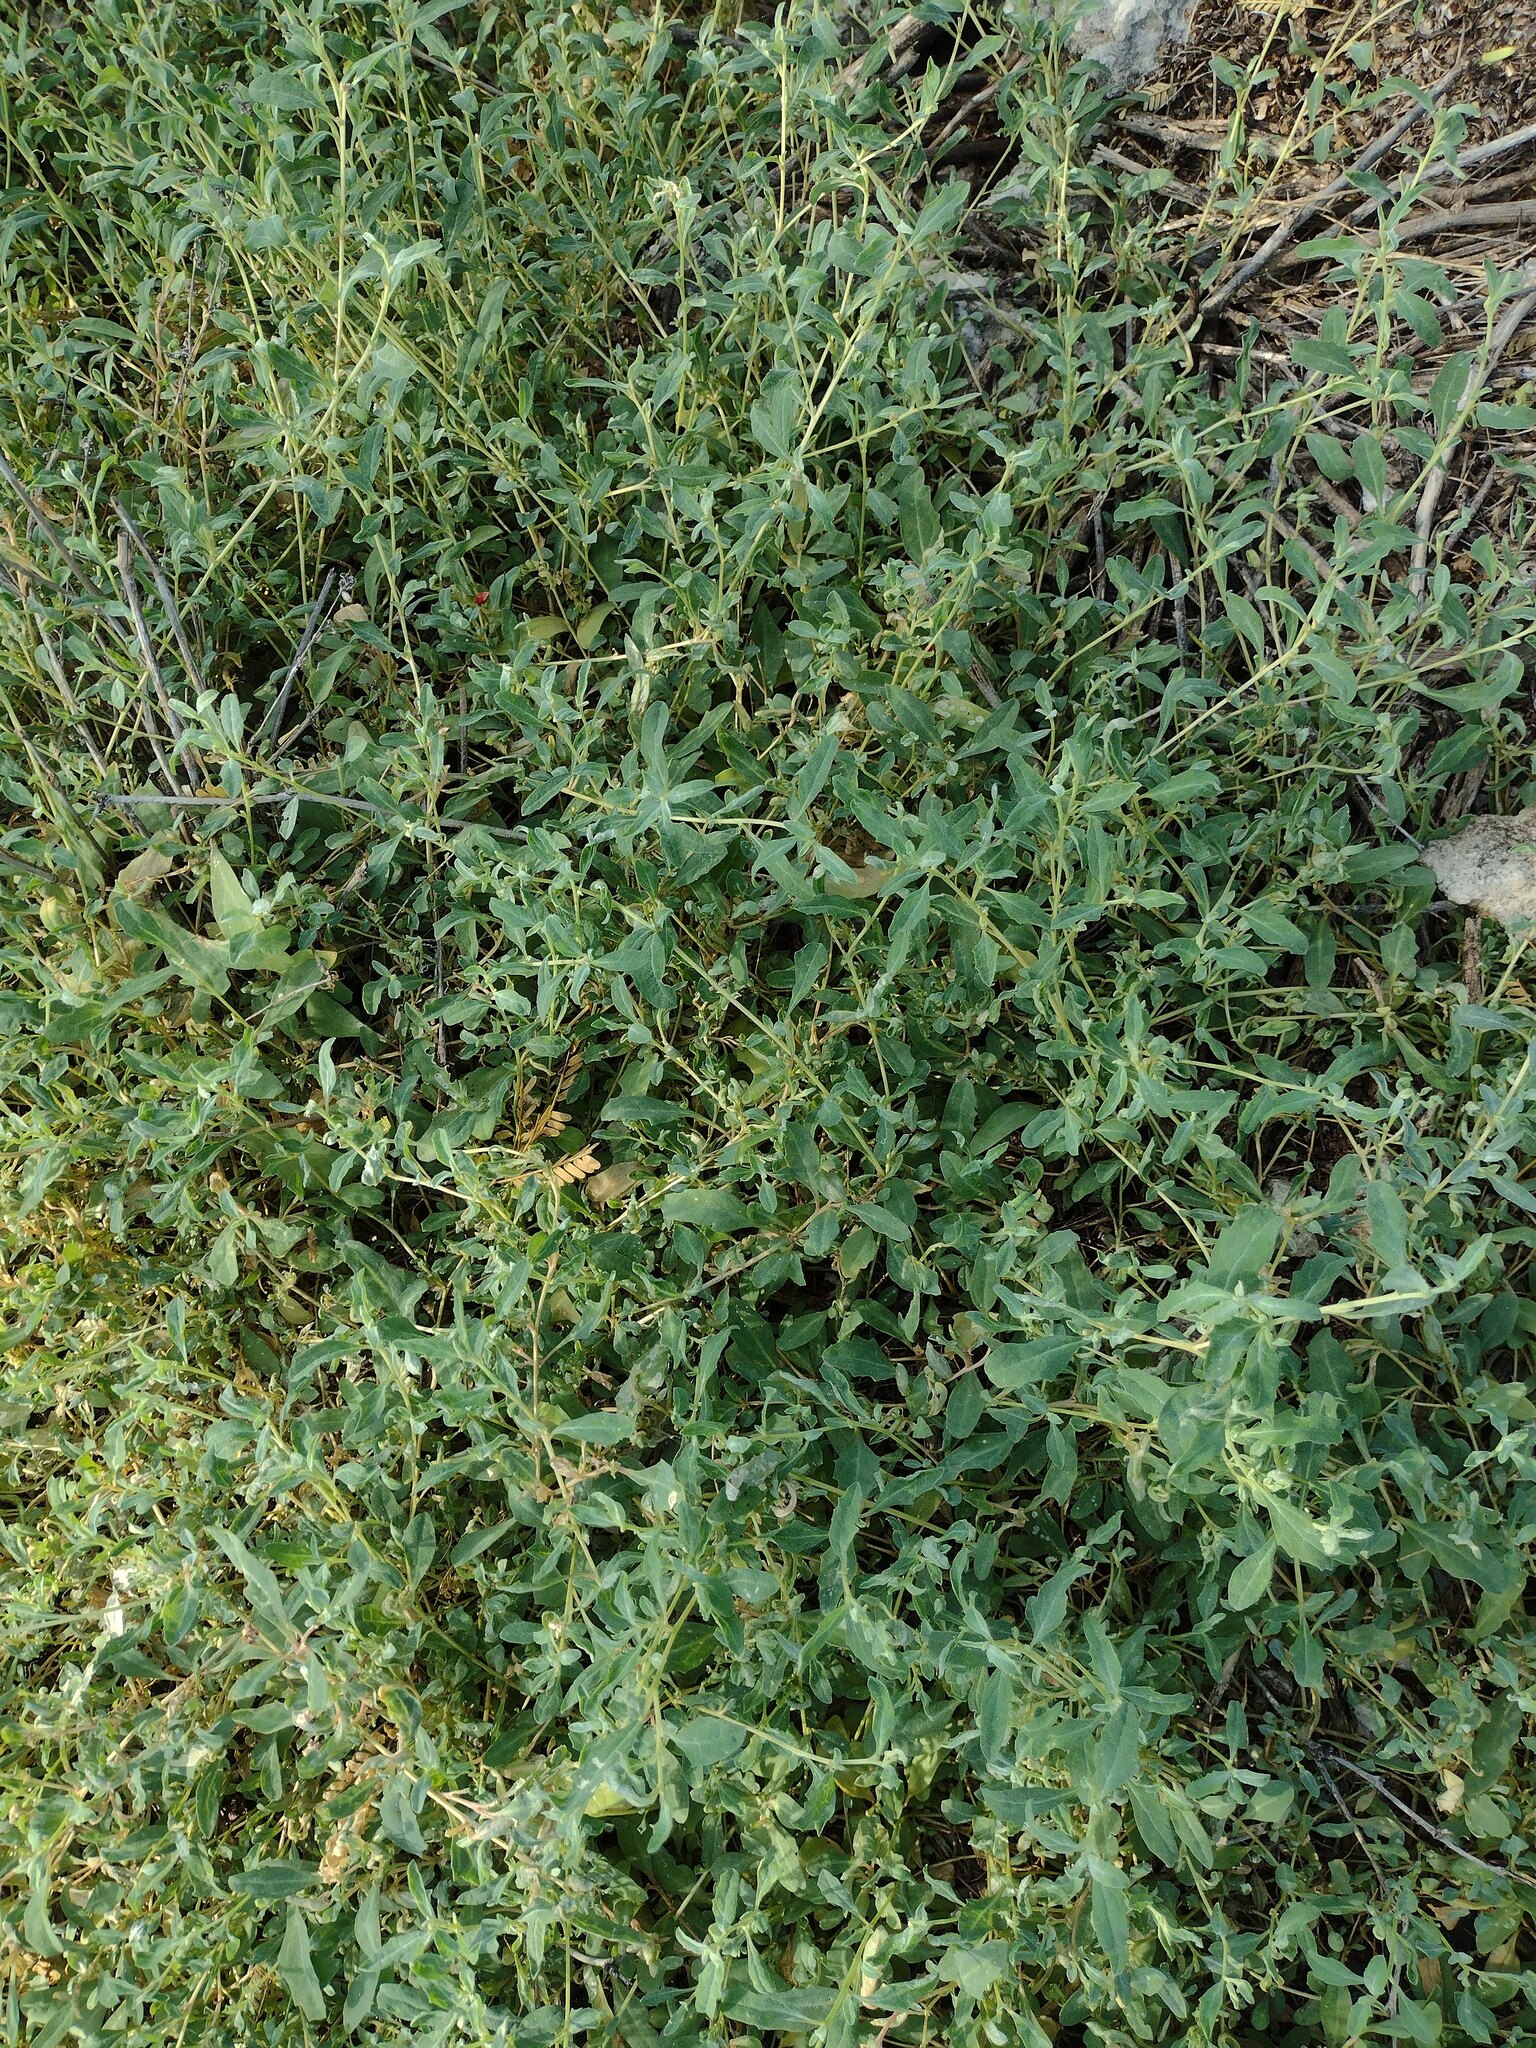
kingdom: Plantae
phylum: Tracheophyta
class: Magnoliopsida
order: Caryophyllales
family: Amaranthaceae
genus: Atriplex
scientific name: Atriplex suberecta
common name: Australian orache
